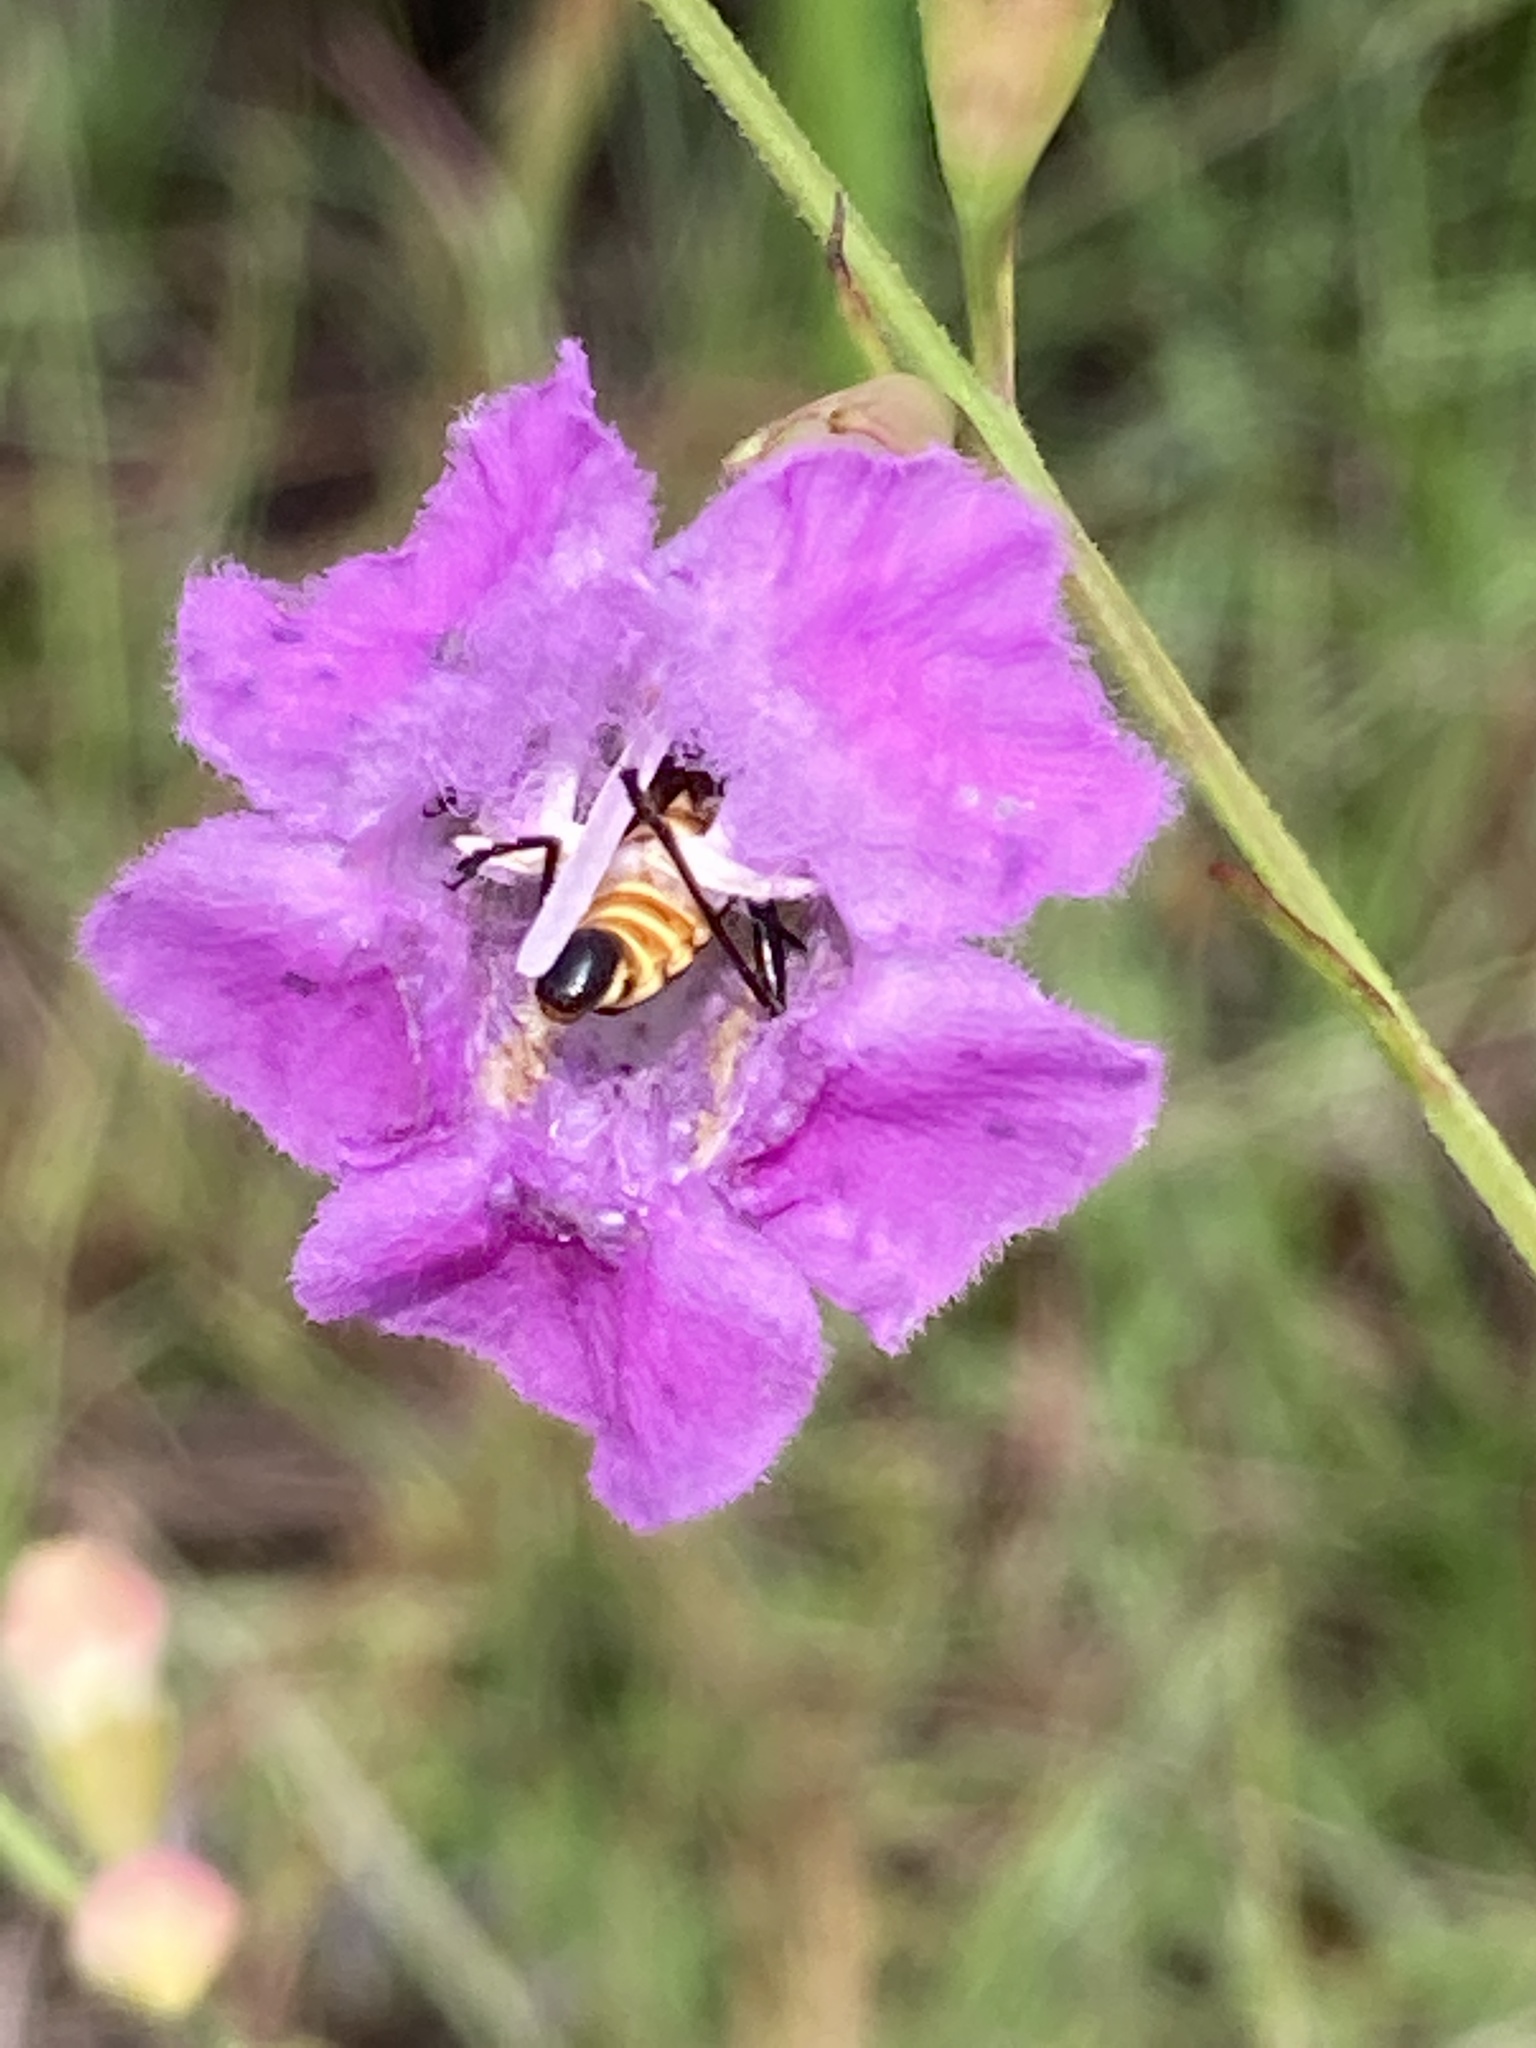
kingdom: Animalia
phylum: Arthropoda
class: Insecta
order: Coleoptera
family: Cantharidae
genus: Chauliognathus
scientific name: Chauliognathus pensylvanicus
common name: Goldenrod soldier beetle
